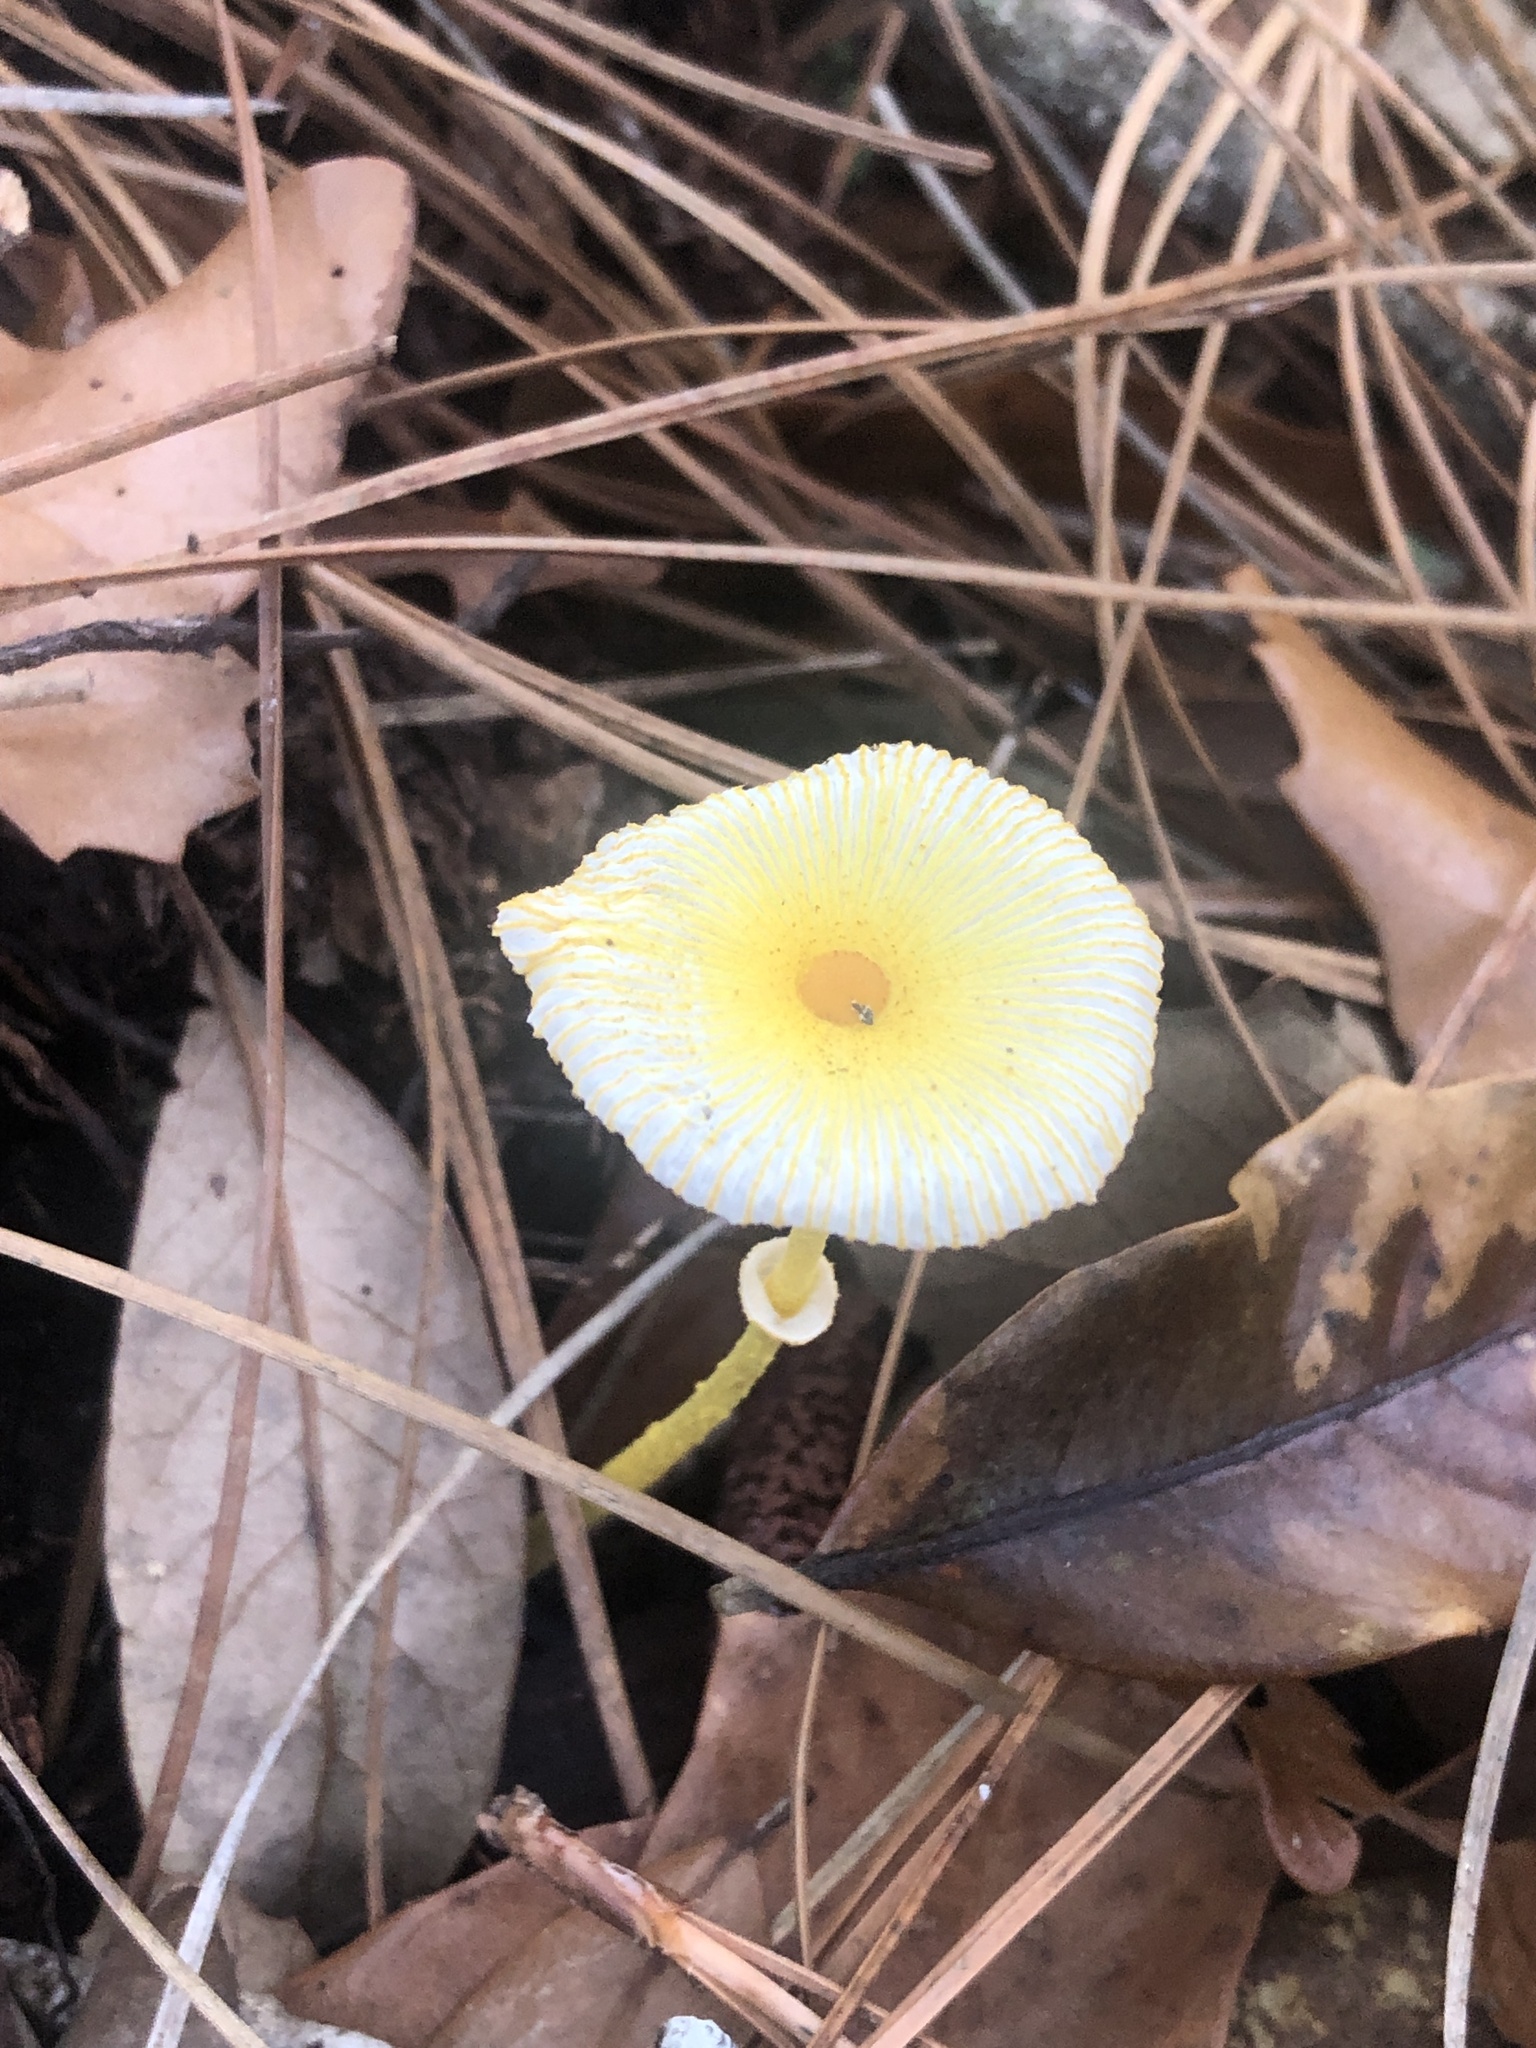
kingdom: Fungi
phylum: Basidiomycota
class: Agaricomycetes
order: Agaricales
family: Agaricaceae
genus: Leucocoprinus
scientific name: Leucocoprinus fragilissimus
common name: Fragile dapperling
